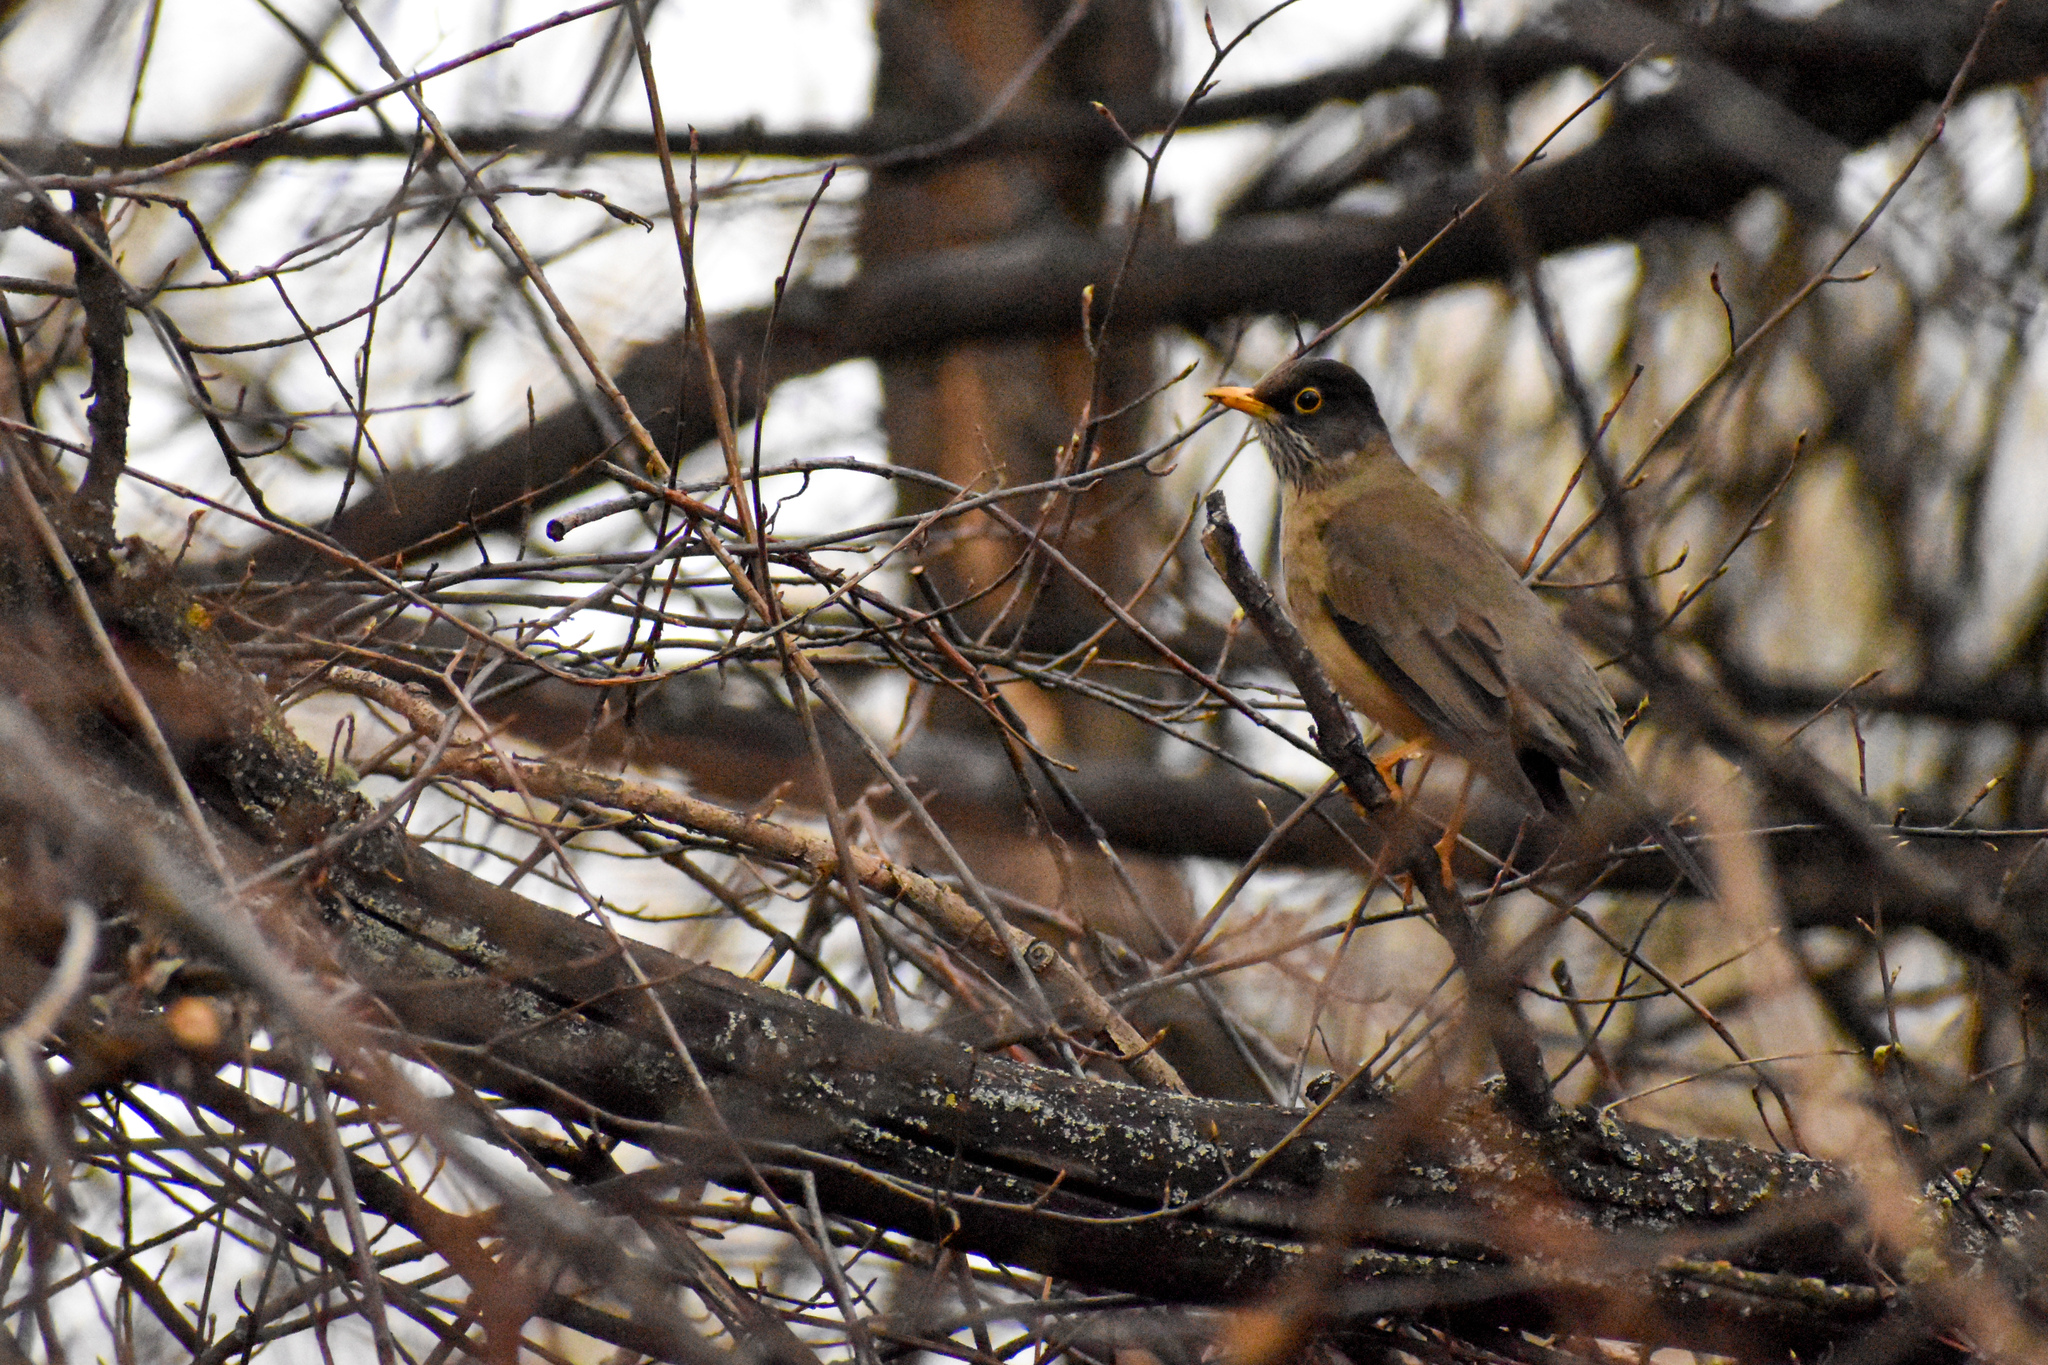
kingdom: Animalia
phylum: Chordata
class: Aves
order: Passeriformes
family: Turdidae
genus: Turdus
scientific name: Turdus falcklandii
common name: Austral thrush
